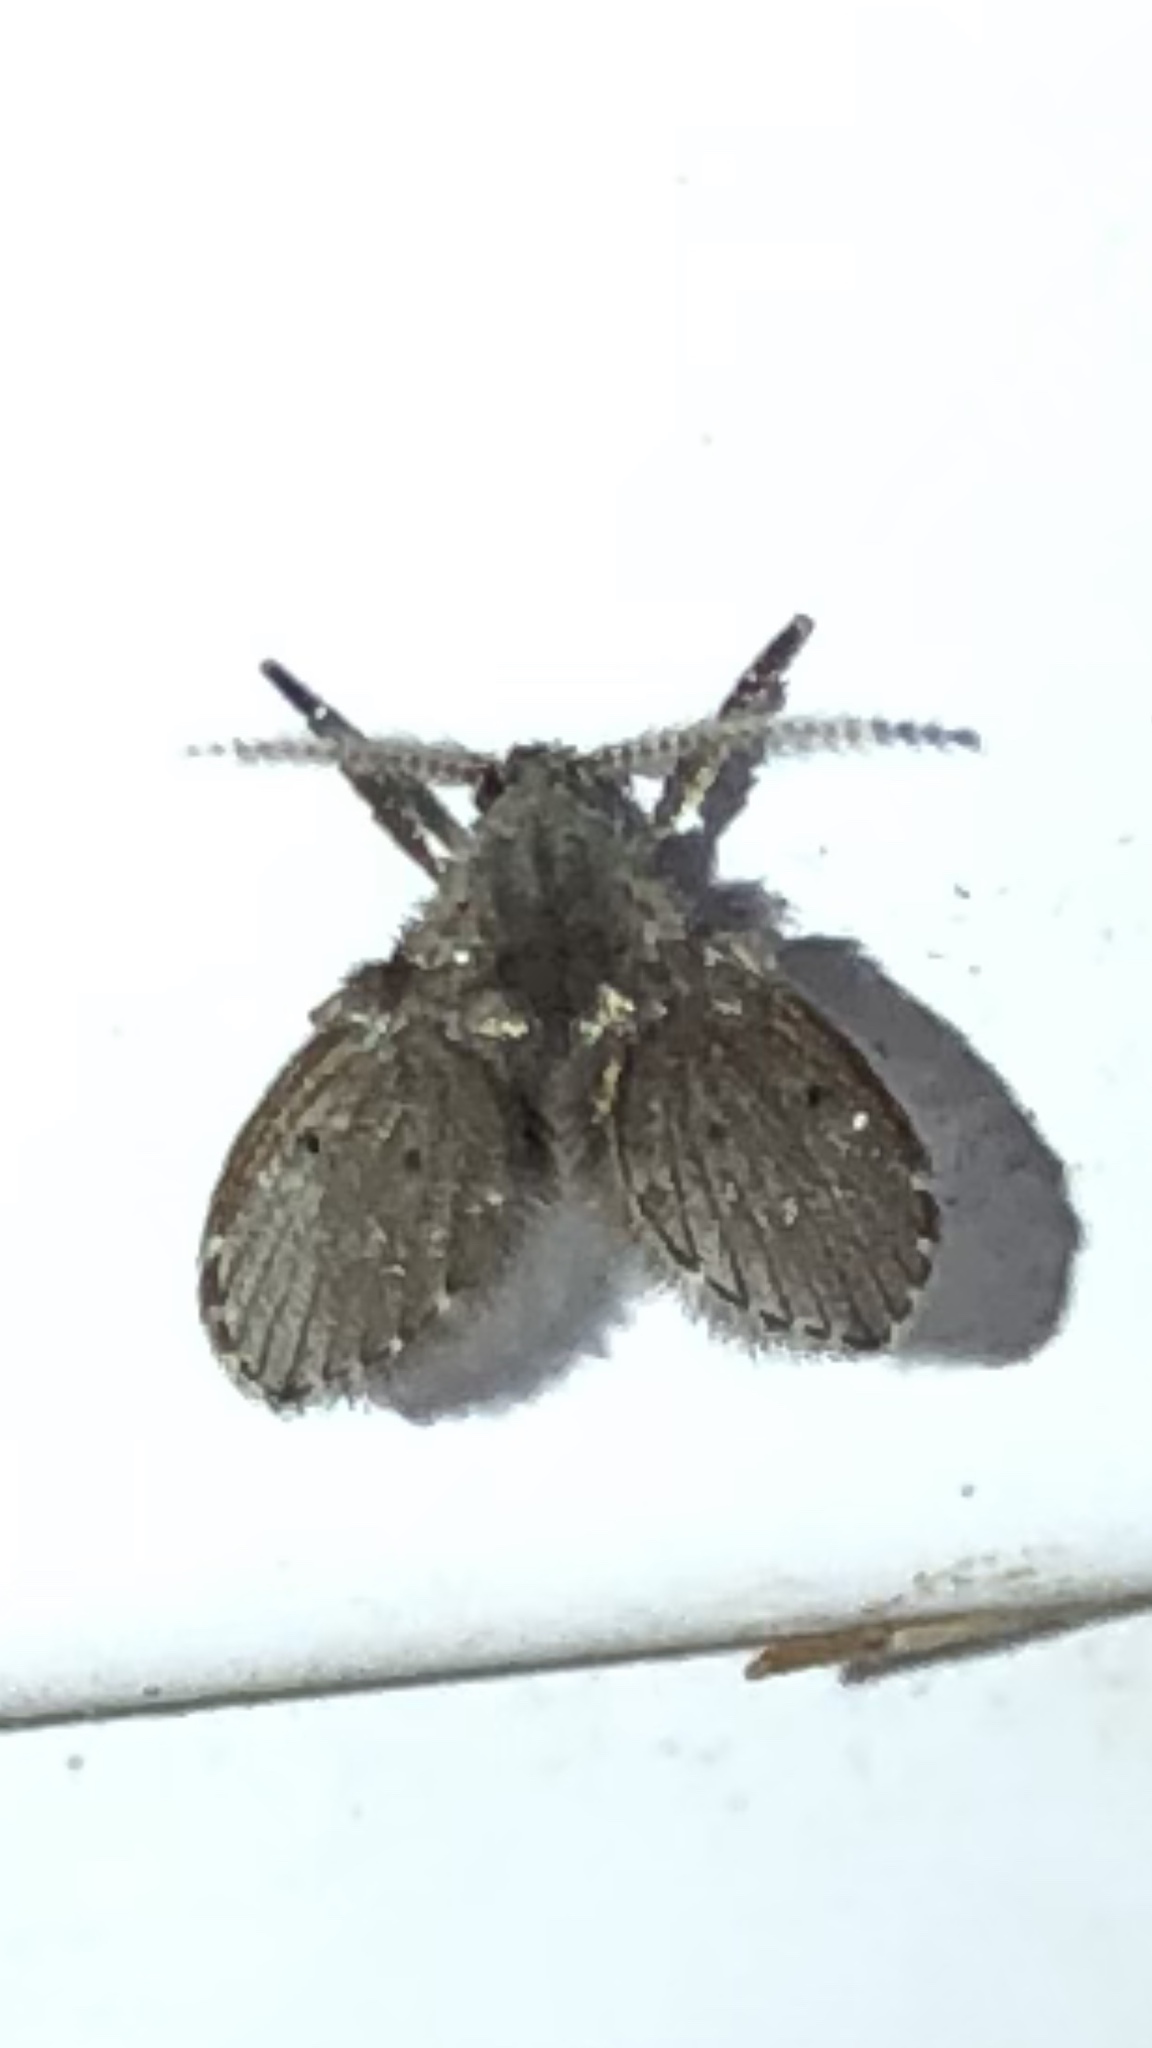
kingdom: Animalia
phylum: Arthropoda
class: Insecta
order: Diptera
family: Psychodidae
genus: Clogmia
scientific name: Clogmia albipunctatus
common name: White-spotted moth fly
